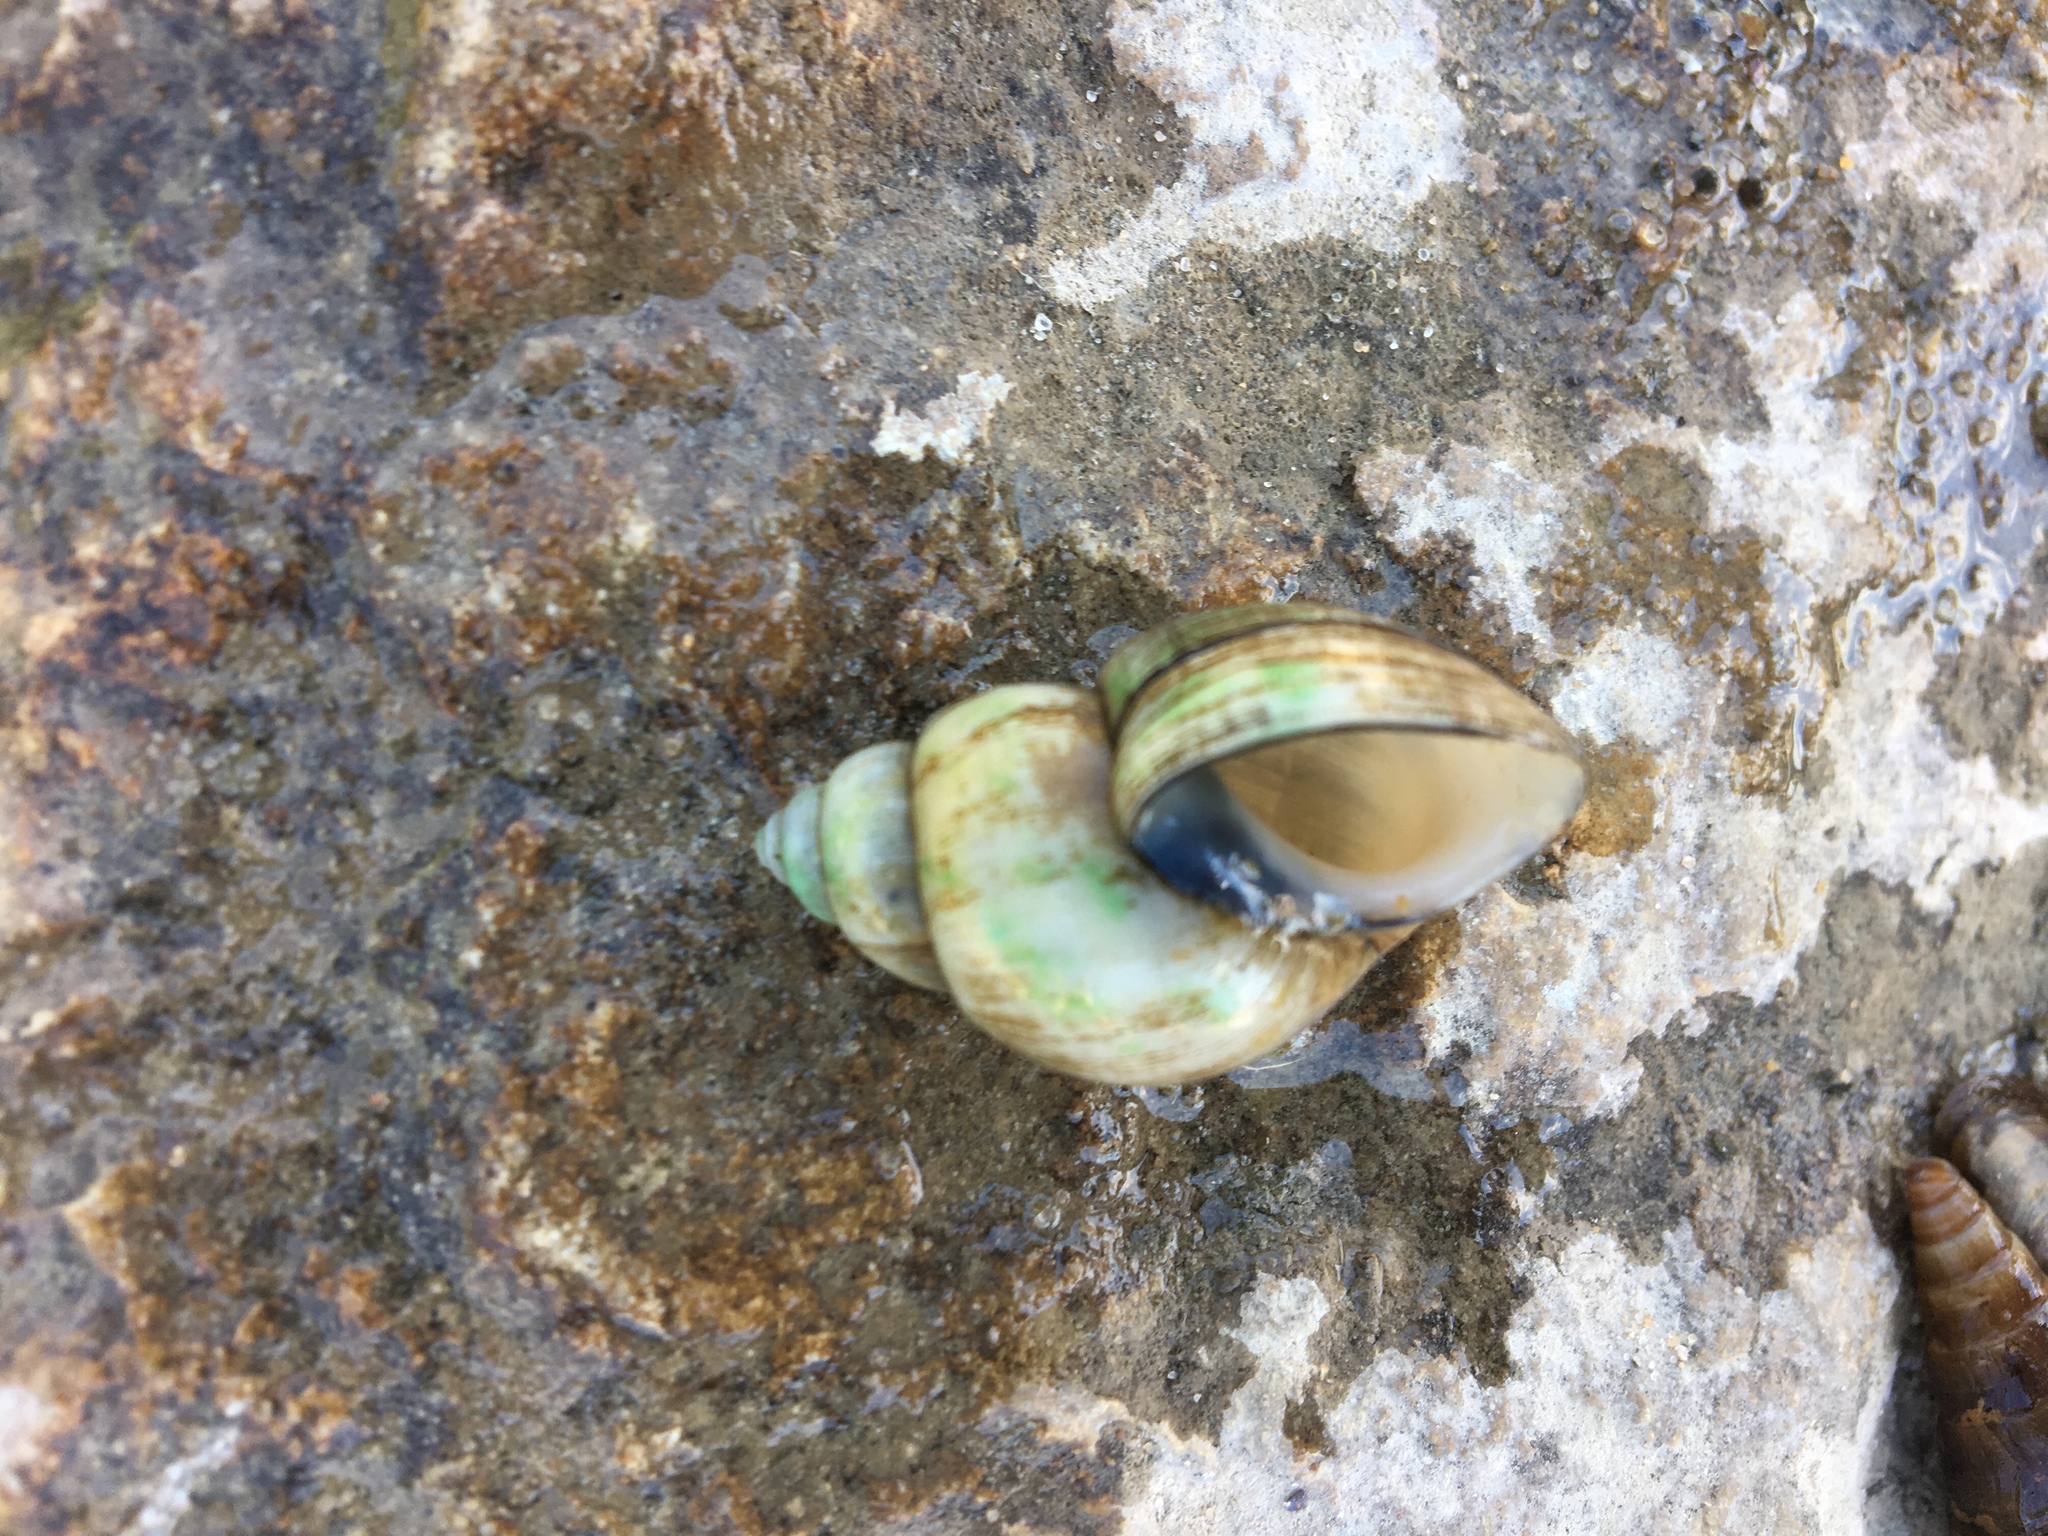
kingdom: Animalia
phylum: Mollusca
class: Gastropoda
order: Architaenioglossa
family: Viviparidae
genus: Cipangopaludina
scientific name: Cipangopaludina chinensis
